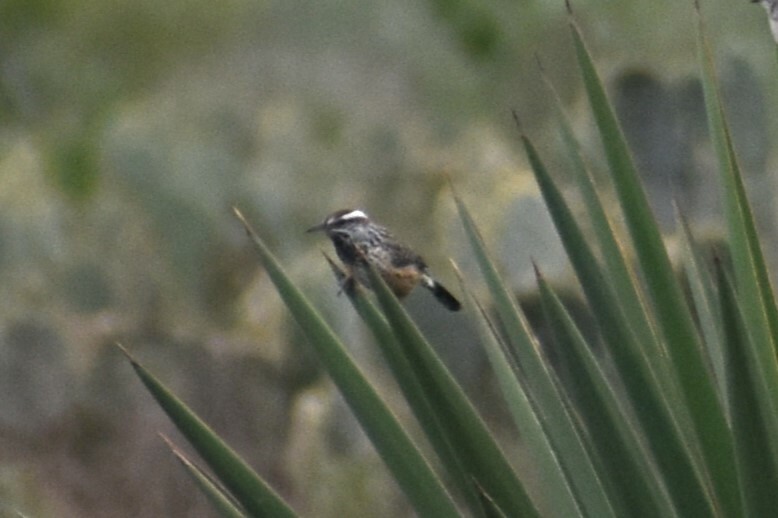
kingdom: Animalia
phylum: Chordata
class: Aves
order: Passeriformes
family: Troglodytidae
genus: Campylorhynchus
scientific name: Campylorhynchus brunneicapillus
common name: Cactus wren
